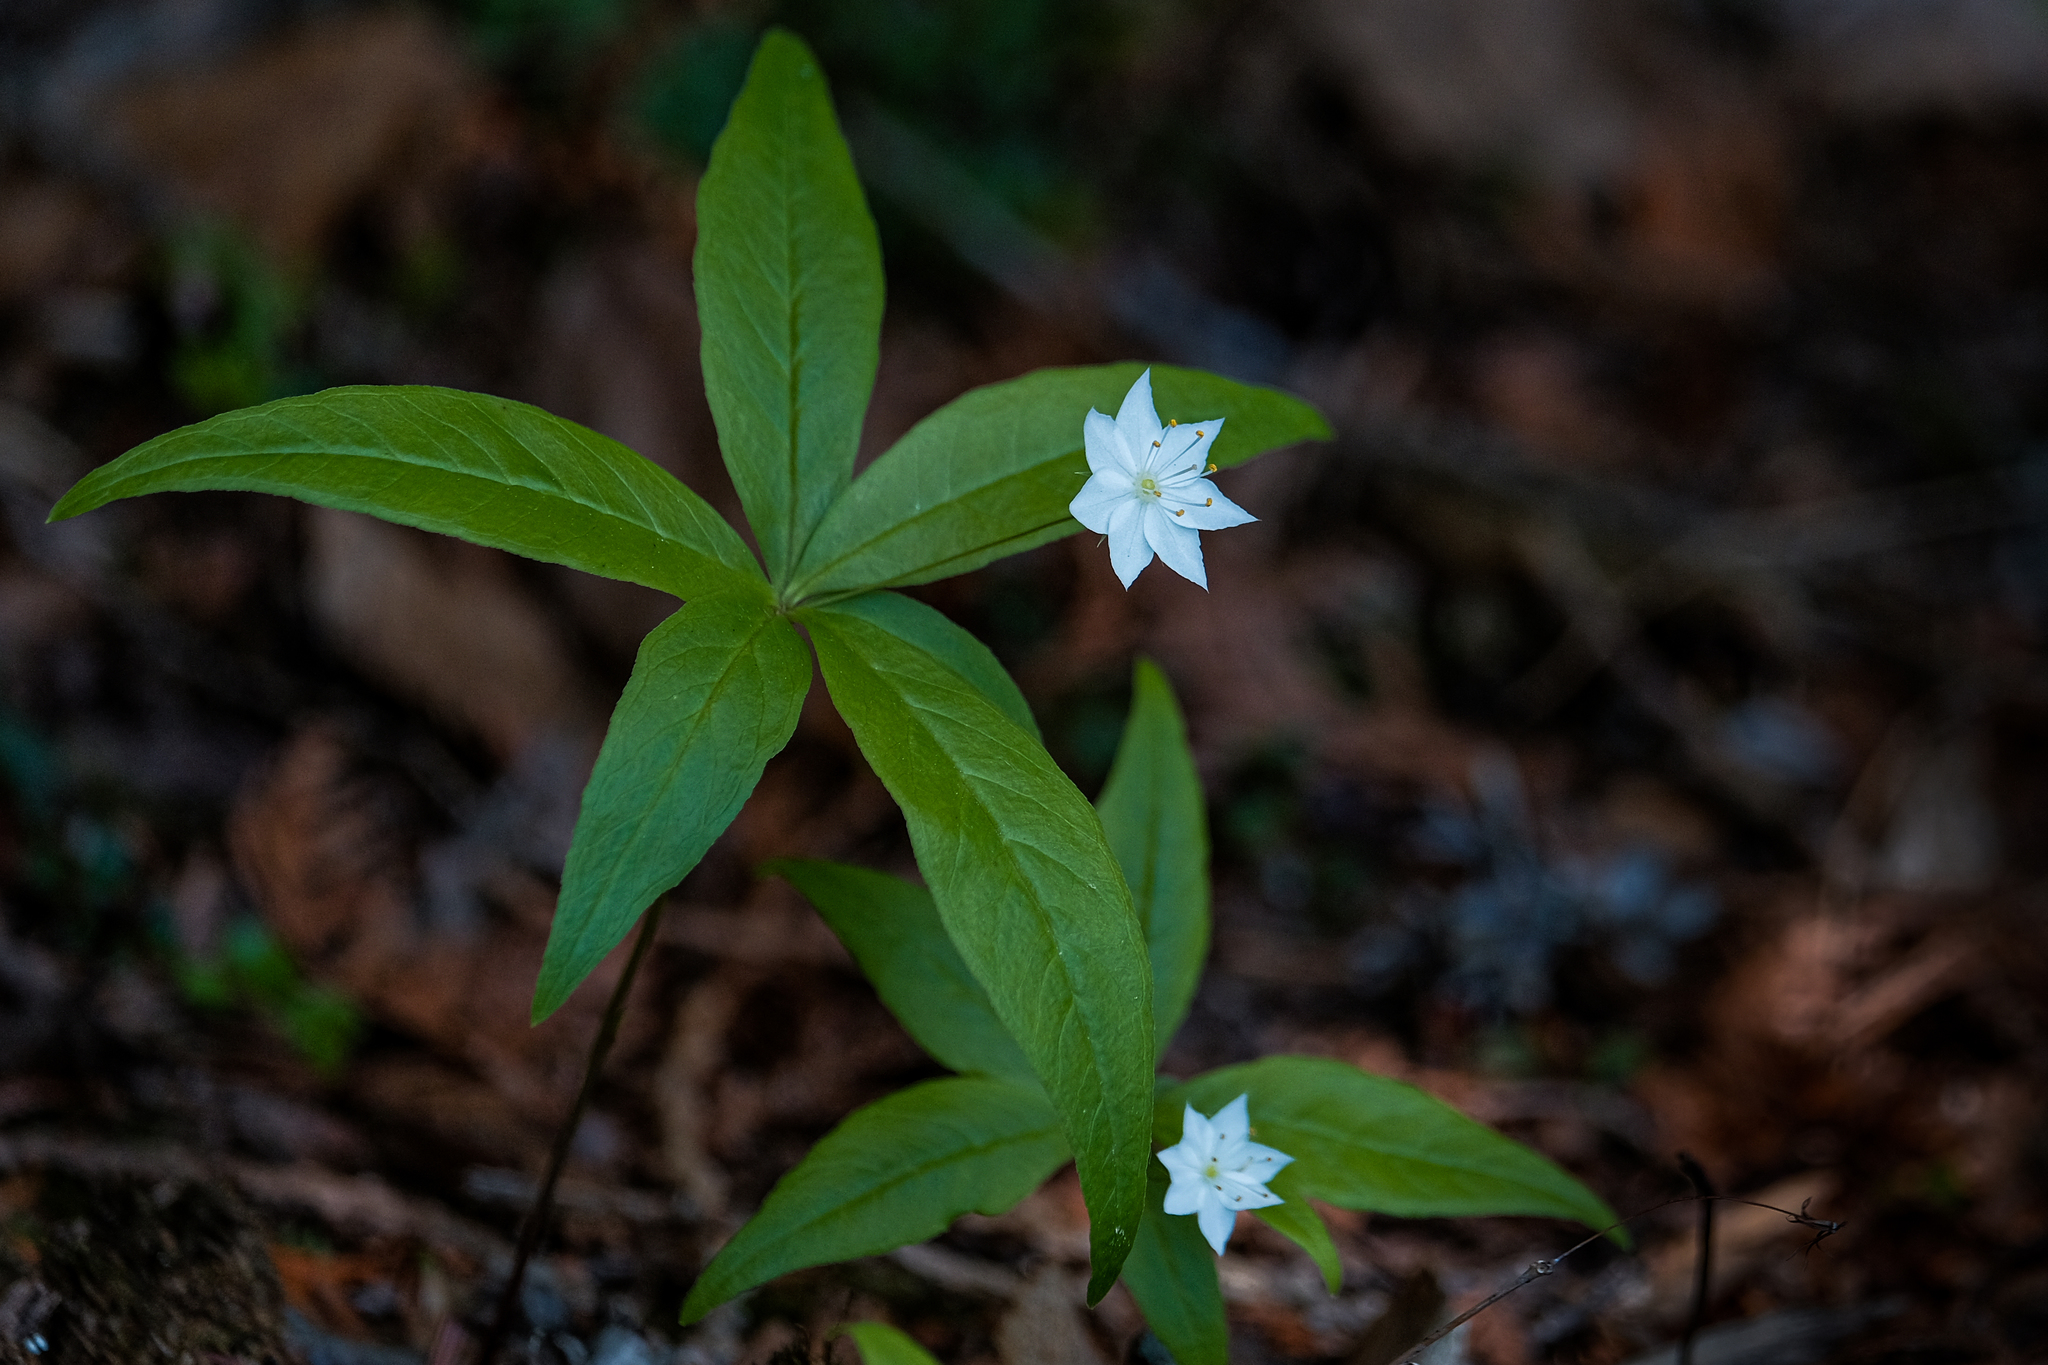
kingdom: Plantae
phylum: Tracheophyta
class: Magnoliopsida
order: Ericales
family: Primulaceae
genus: Lysimachia
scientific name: Lysimachia borealis
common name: American starflower
